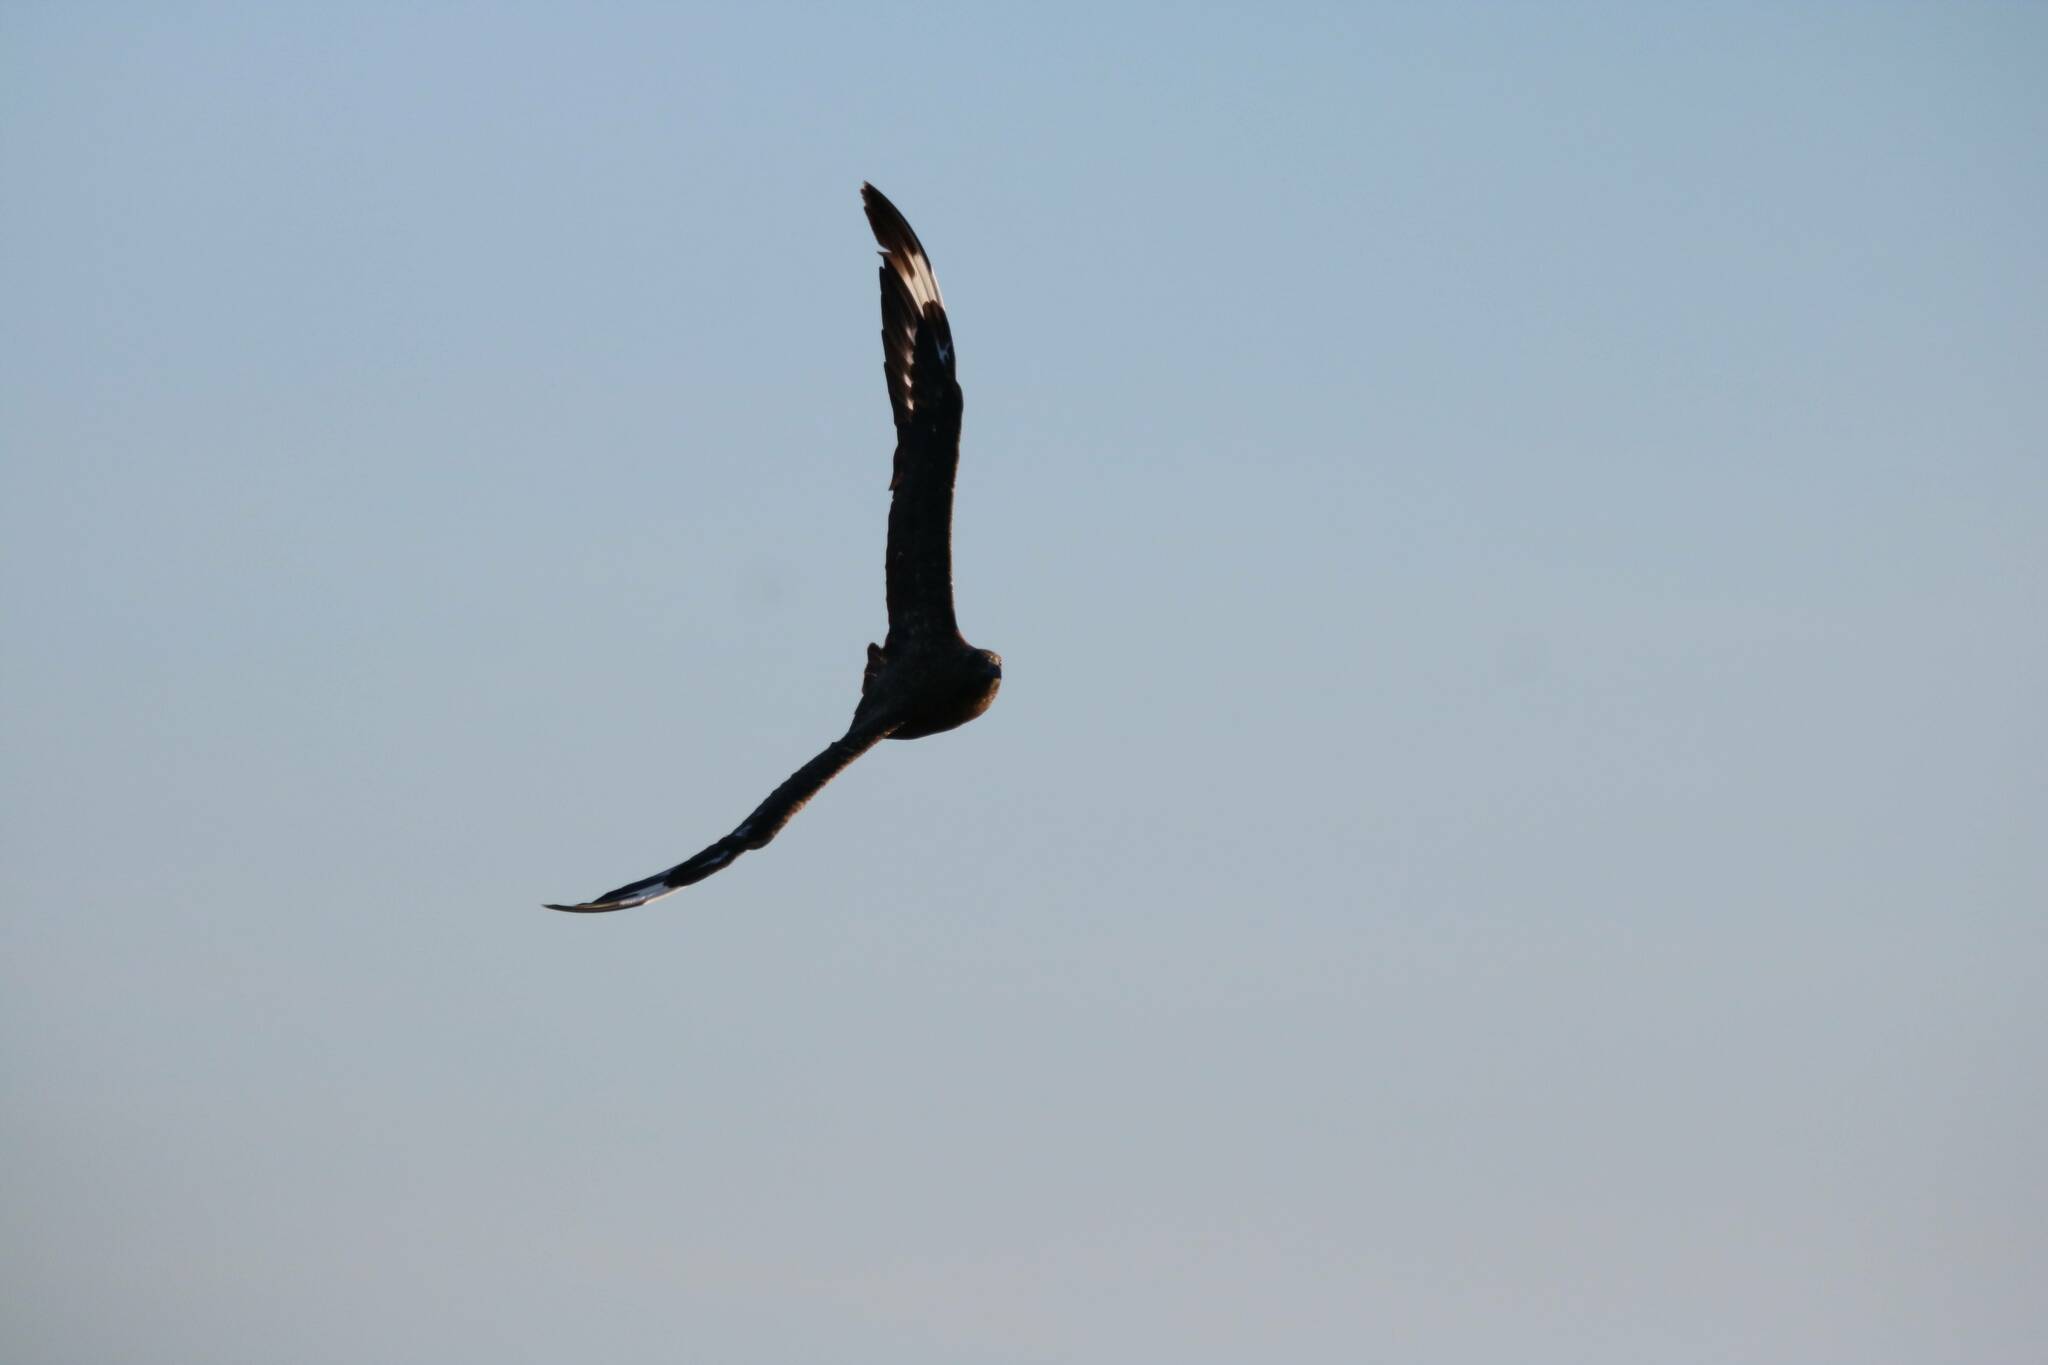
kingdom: Animalia
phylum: Chordata
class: Aves
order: Charadriiformes
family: Stercorariidae
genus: Stercorarius
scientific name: Stercorarius skua
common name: Great skua
